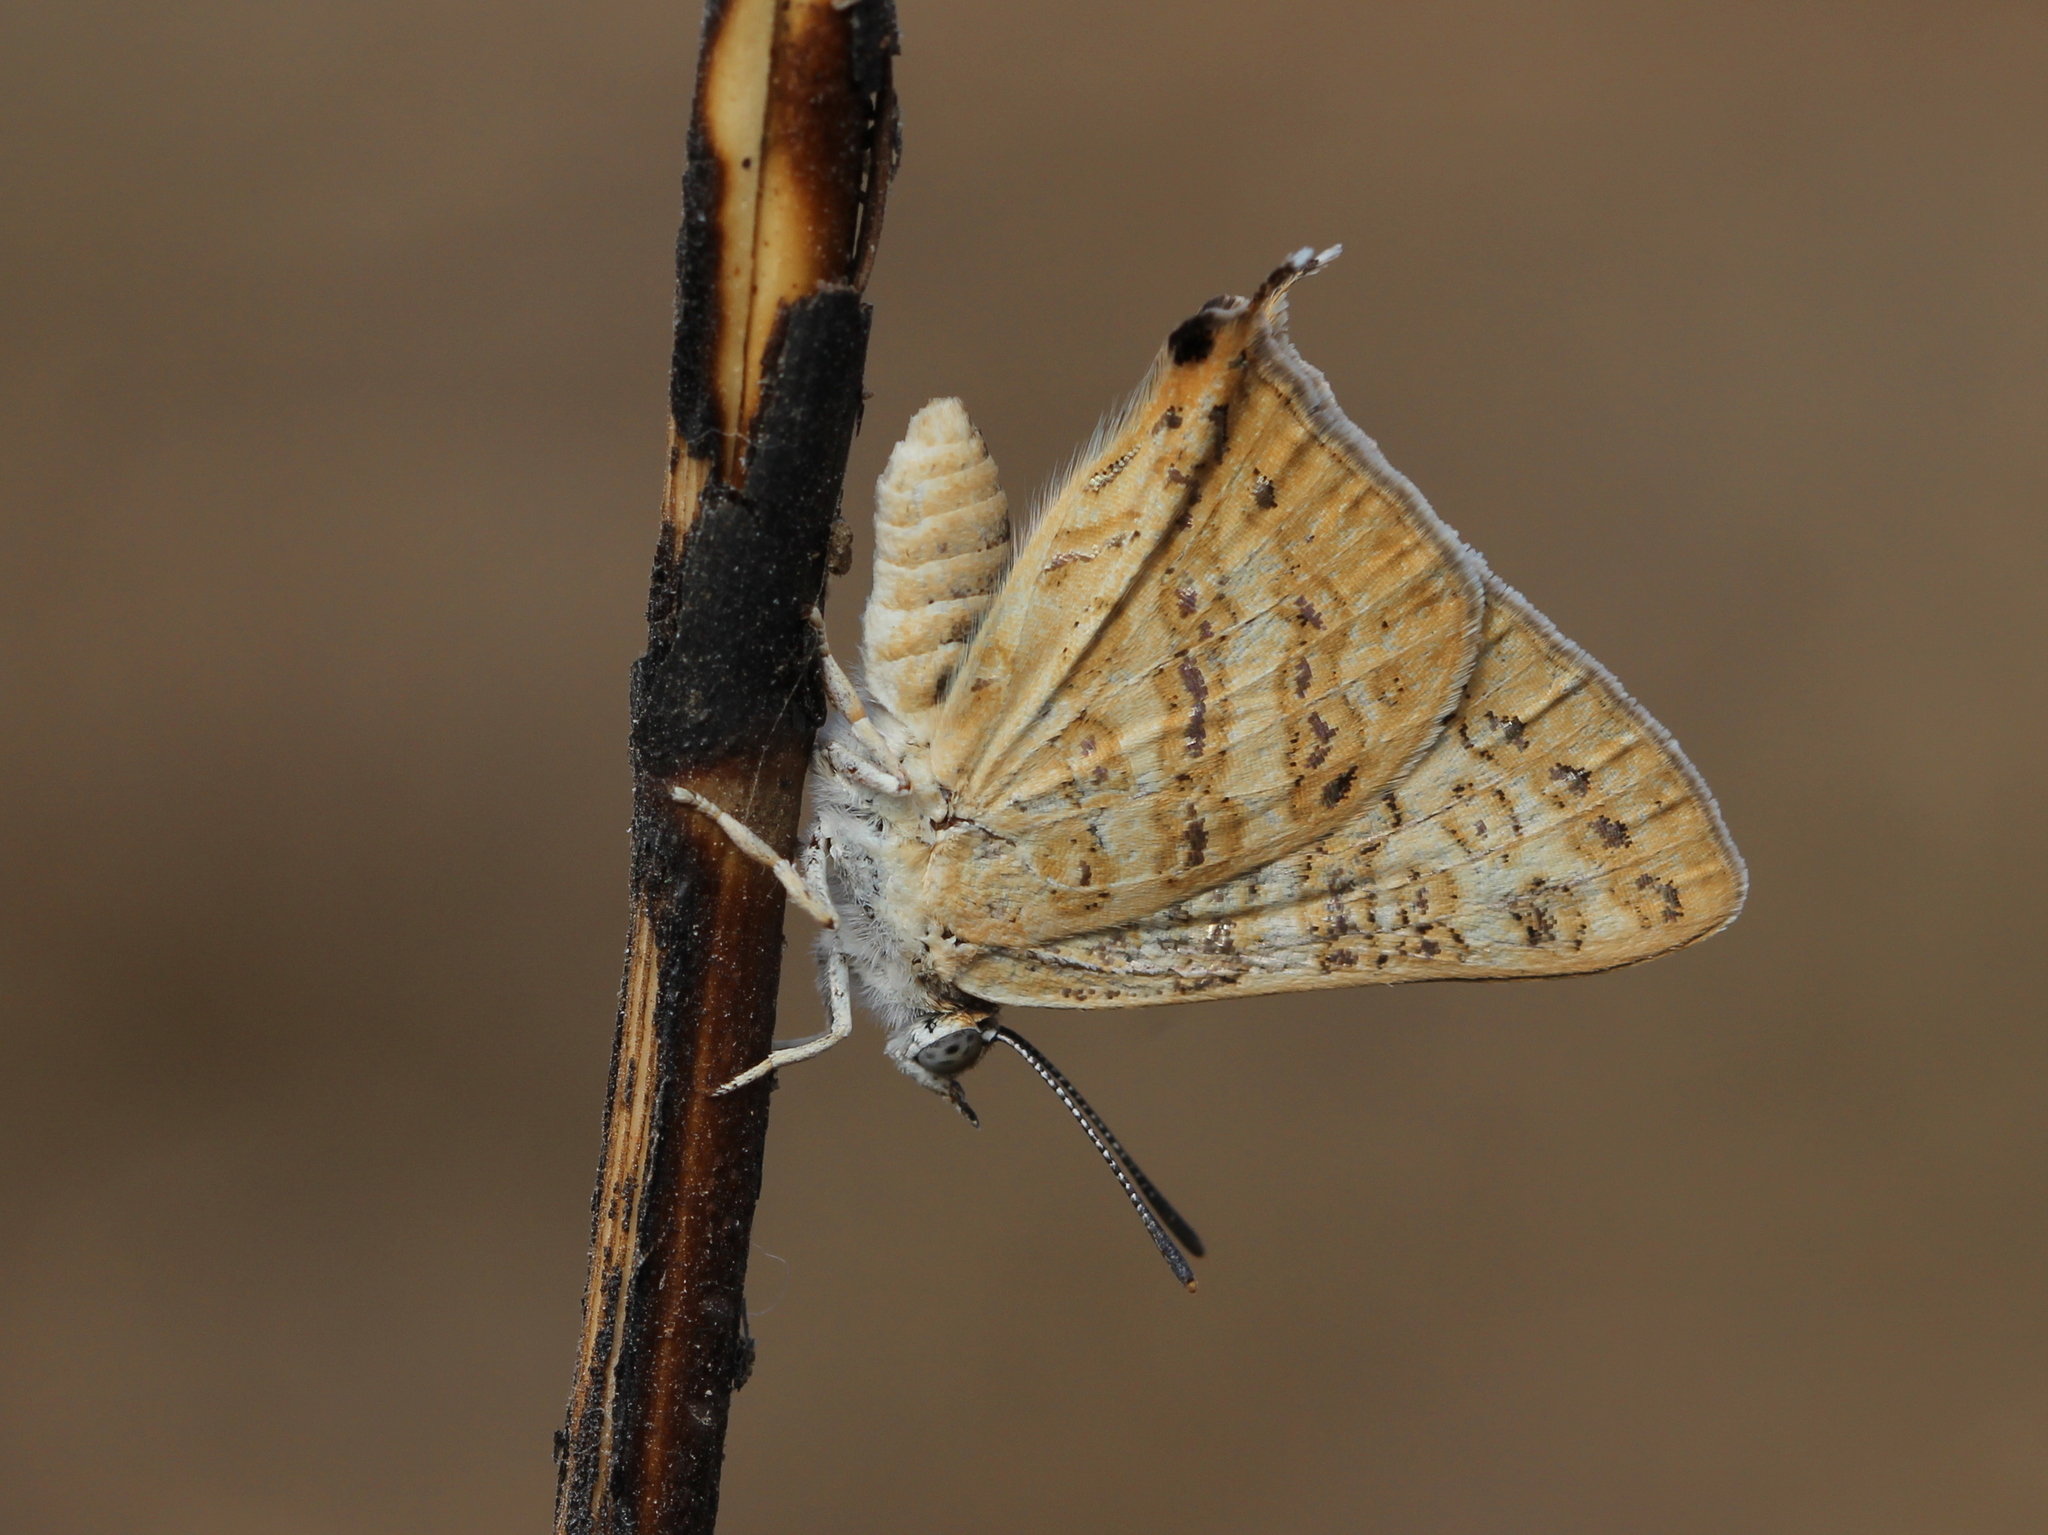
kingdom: Animalia
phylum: Arthropoda
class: Insecta
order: Lepidoptera
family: Lycaenidae
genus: Aphnaeus
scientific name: Aphnaeus lilacinus
